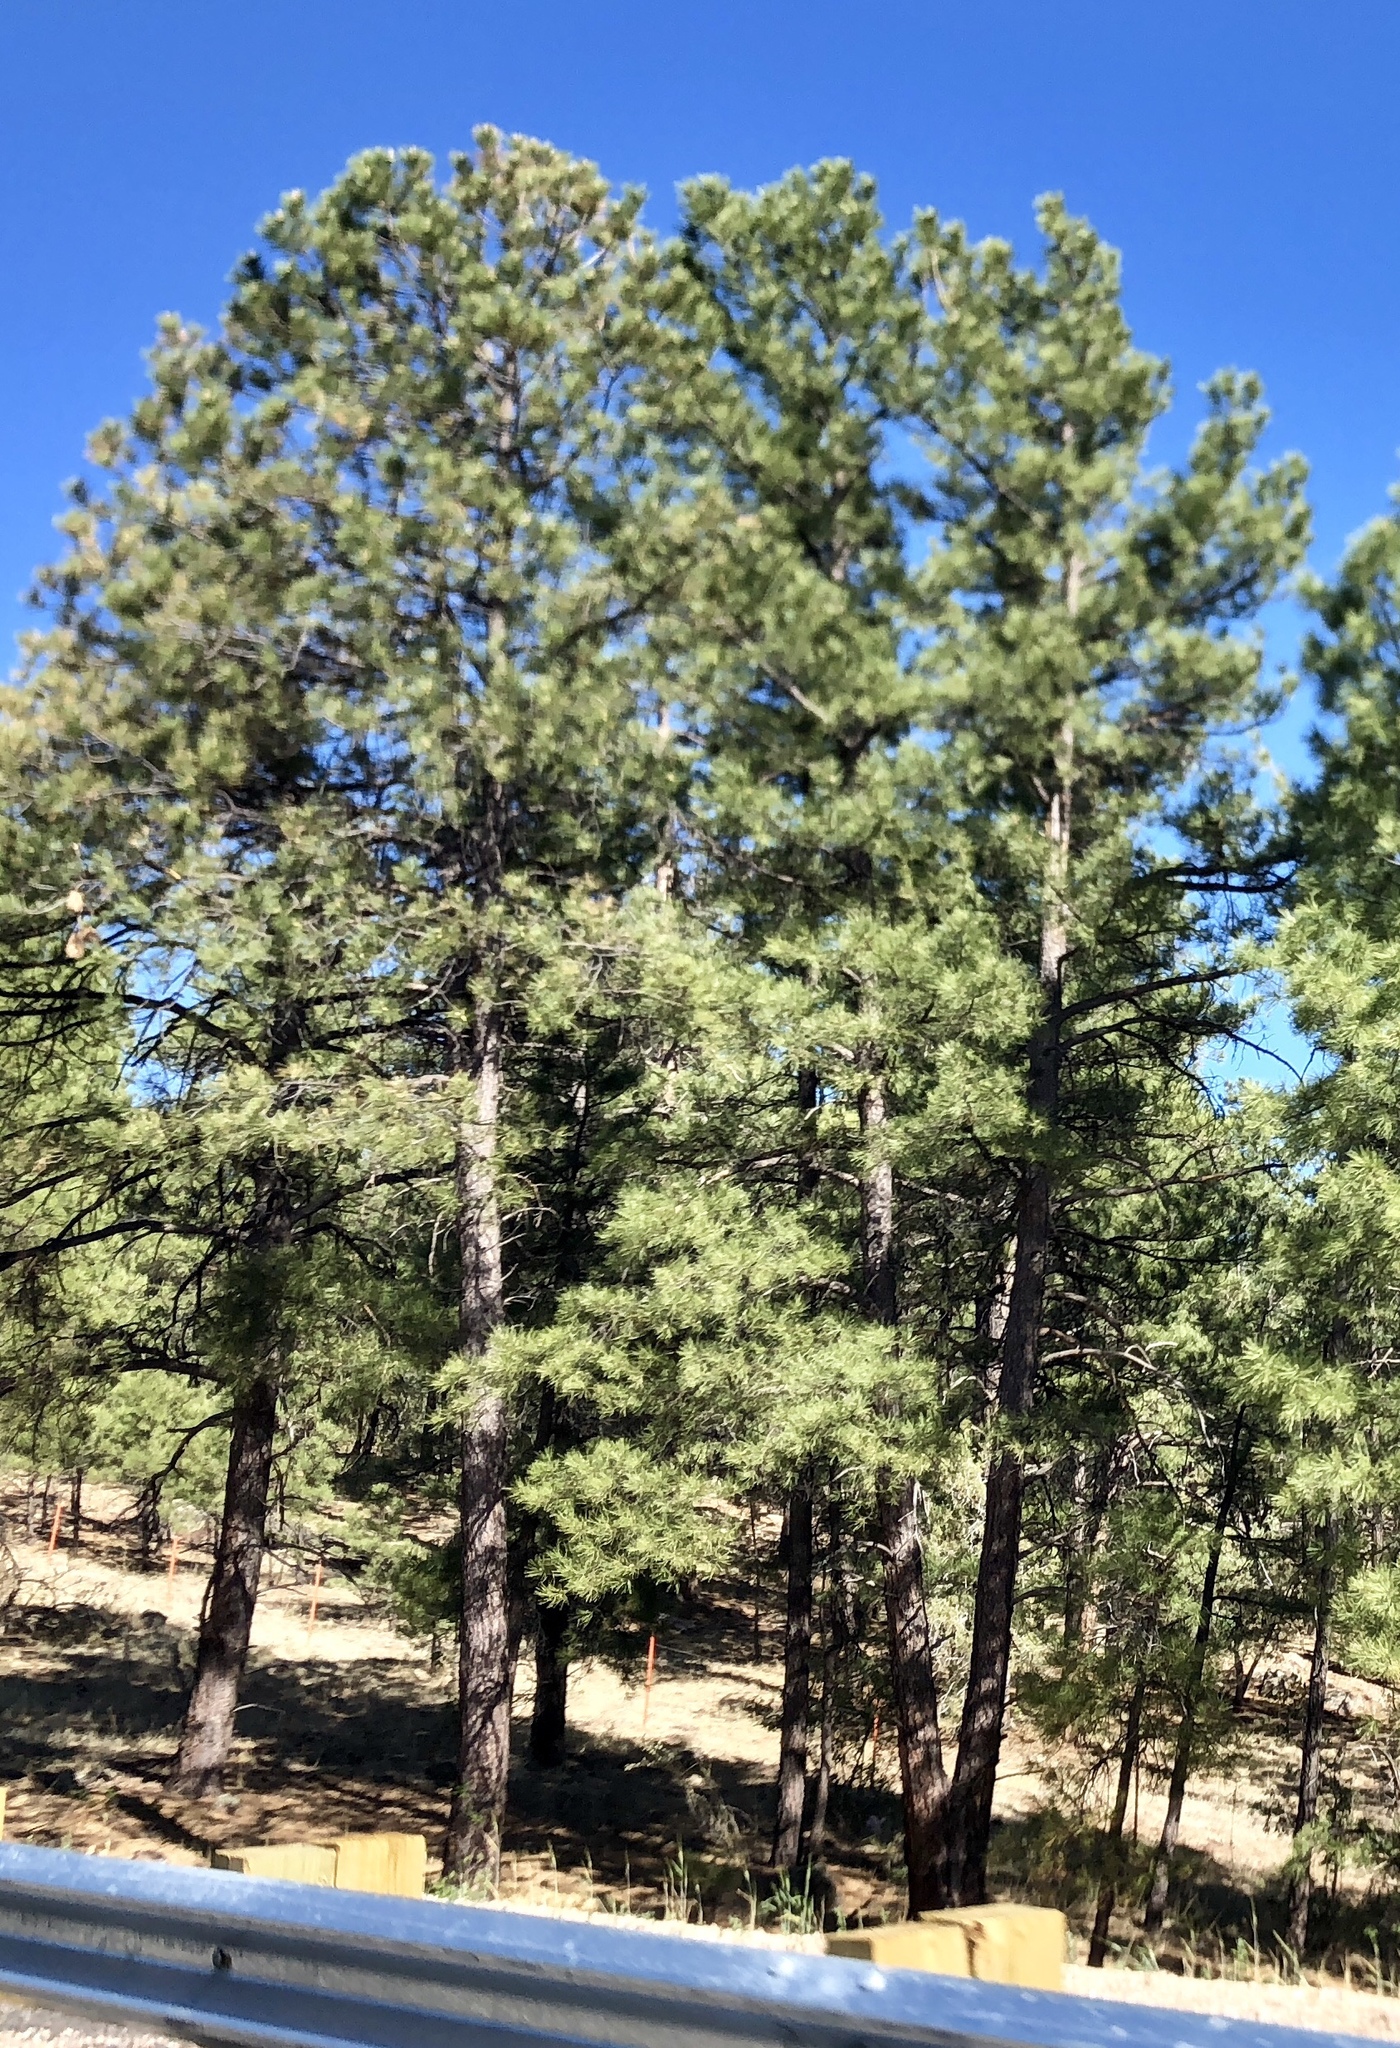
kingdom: Plantae
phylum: Tracheophyta
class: Pinopsida
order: Pinales
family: Pinaceae
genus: Pinus
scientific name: Pinus ponderosa
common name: Western yellow-pine
